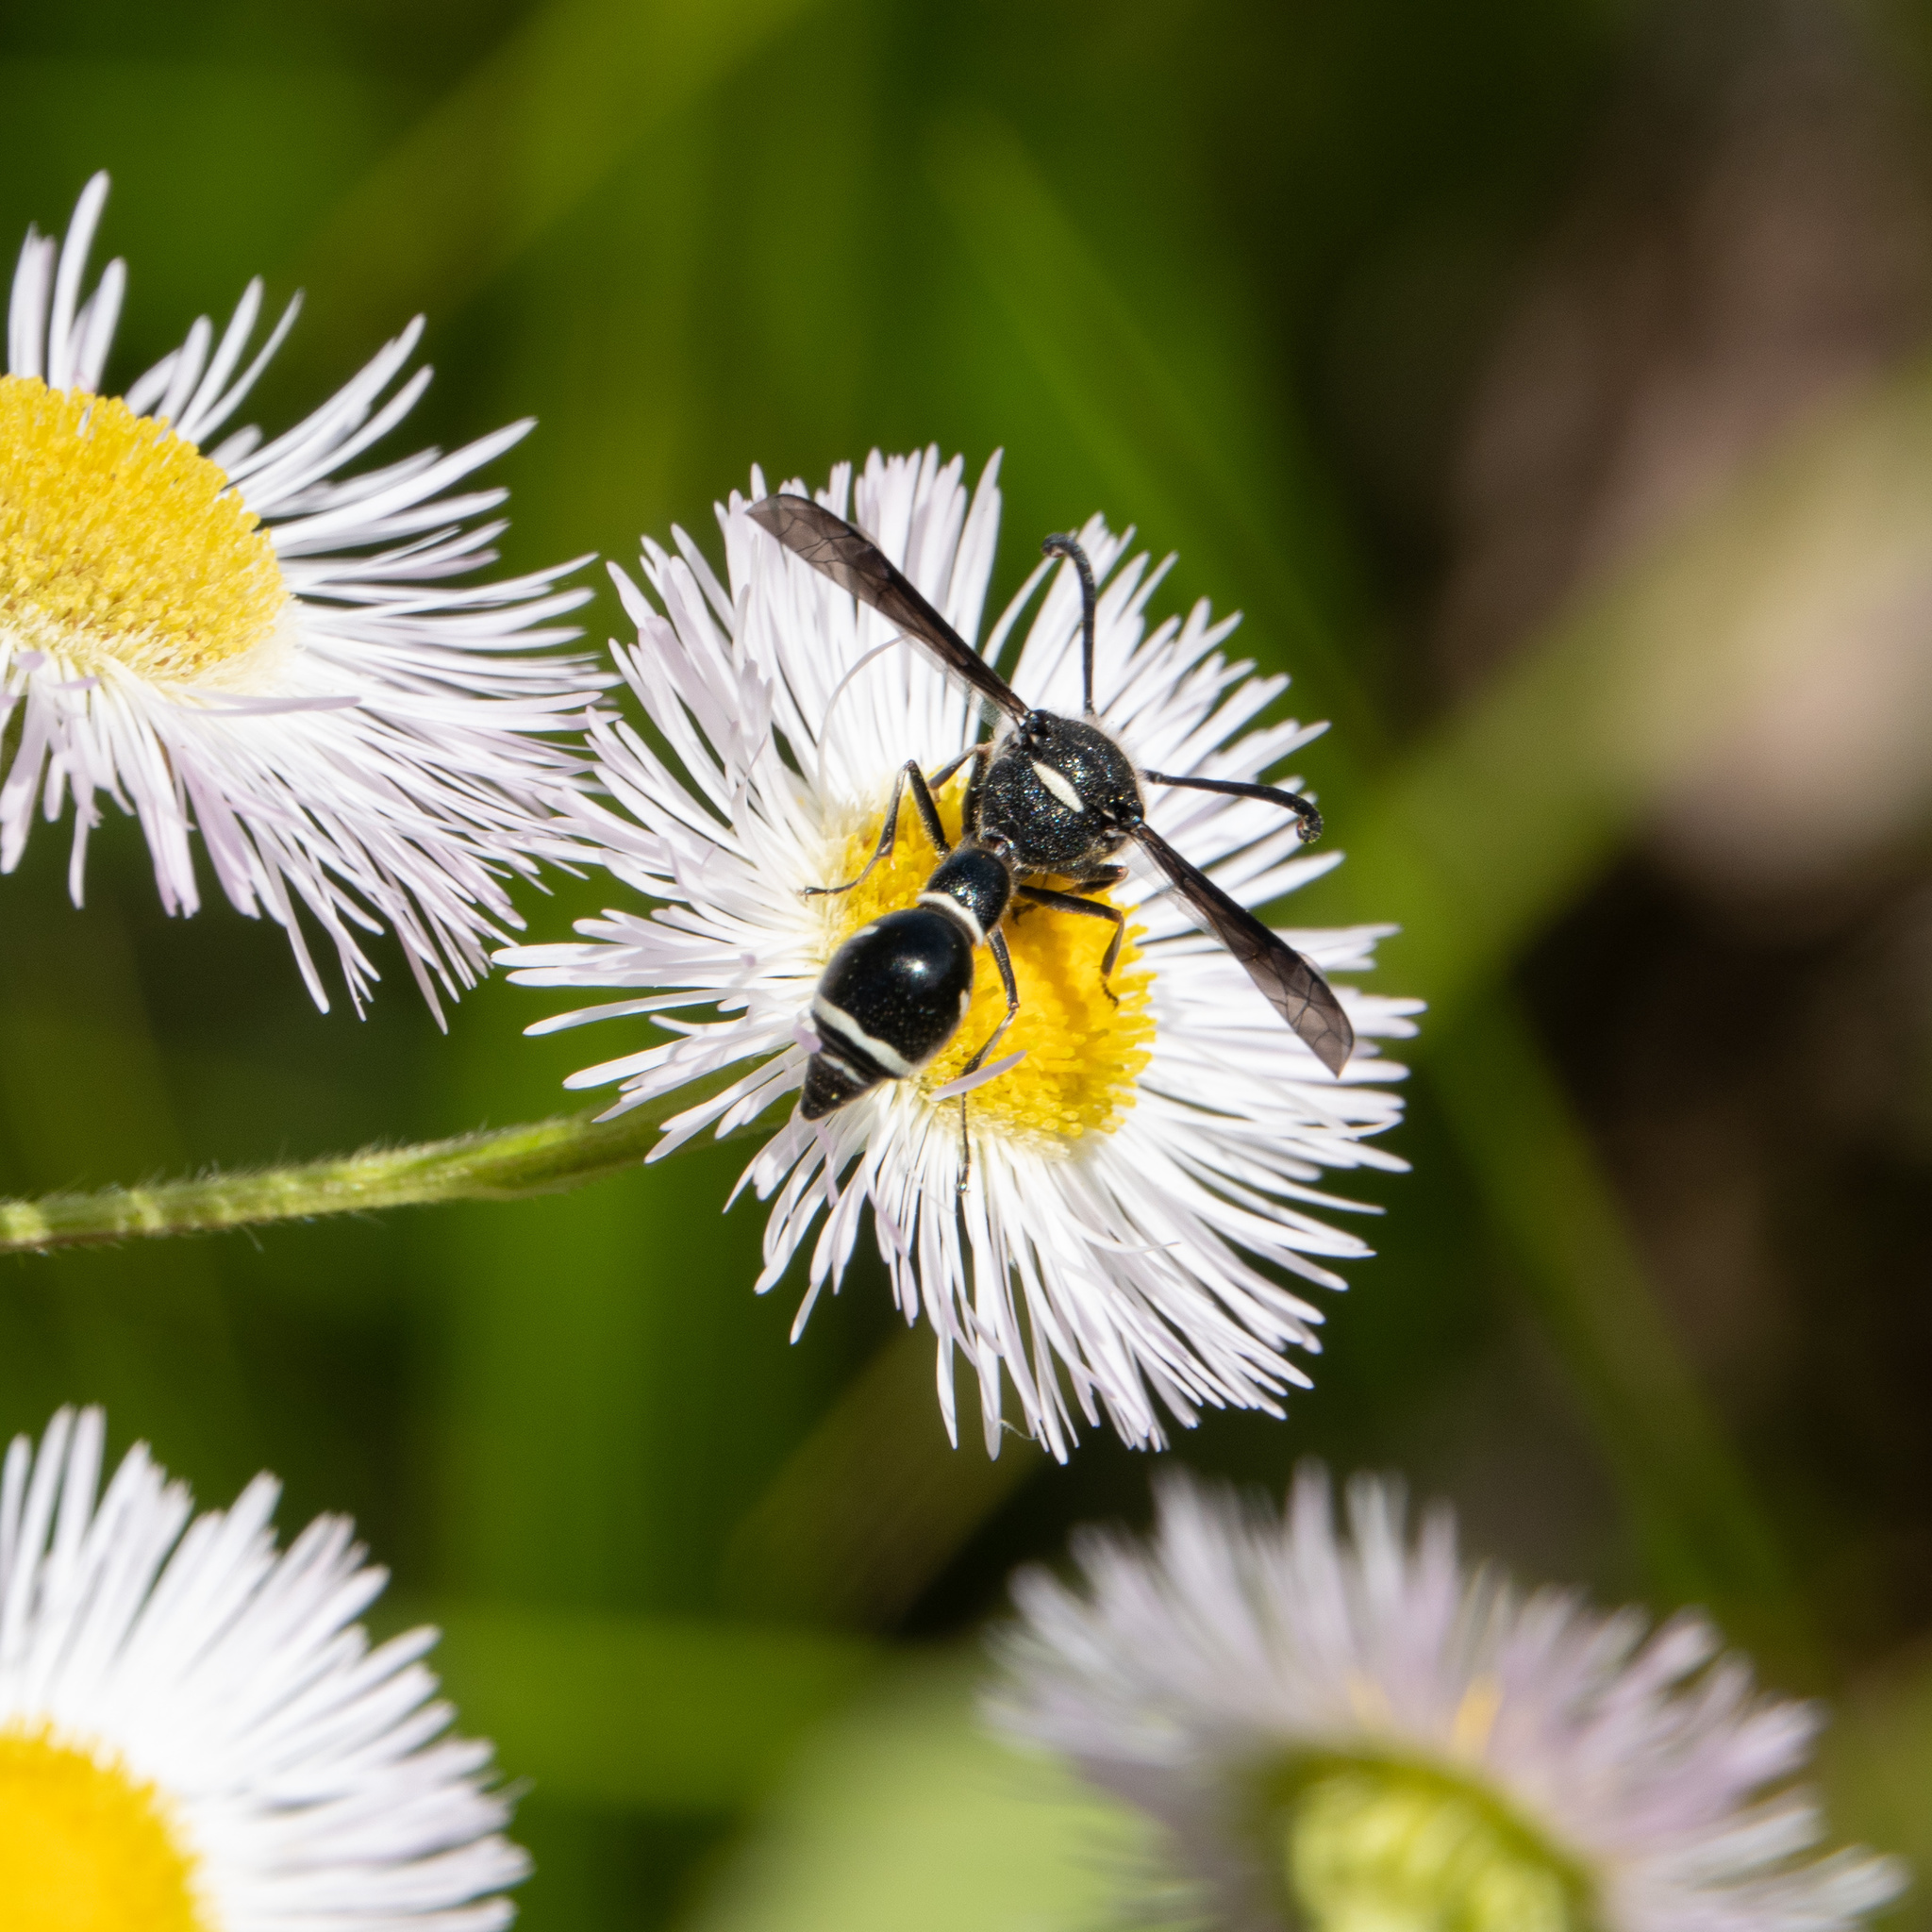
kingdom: Animalia
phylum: Arthropoda
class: Insecta
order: Hymenoptera
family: Vespidae
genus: Eumenes
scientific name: Eumenes fraternus
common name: Fraternal potter wasp
